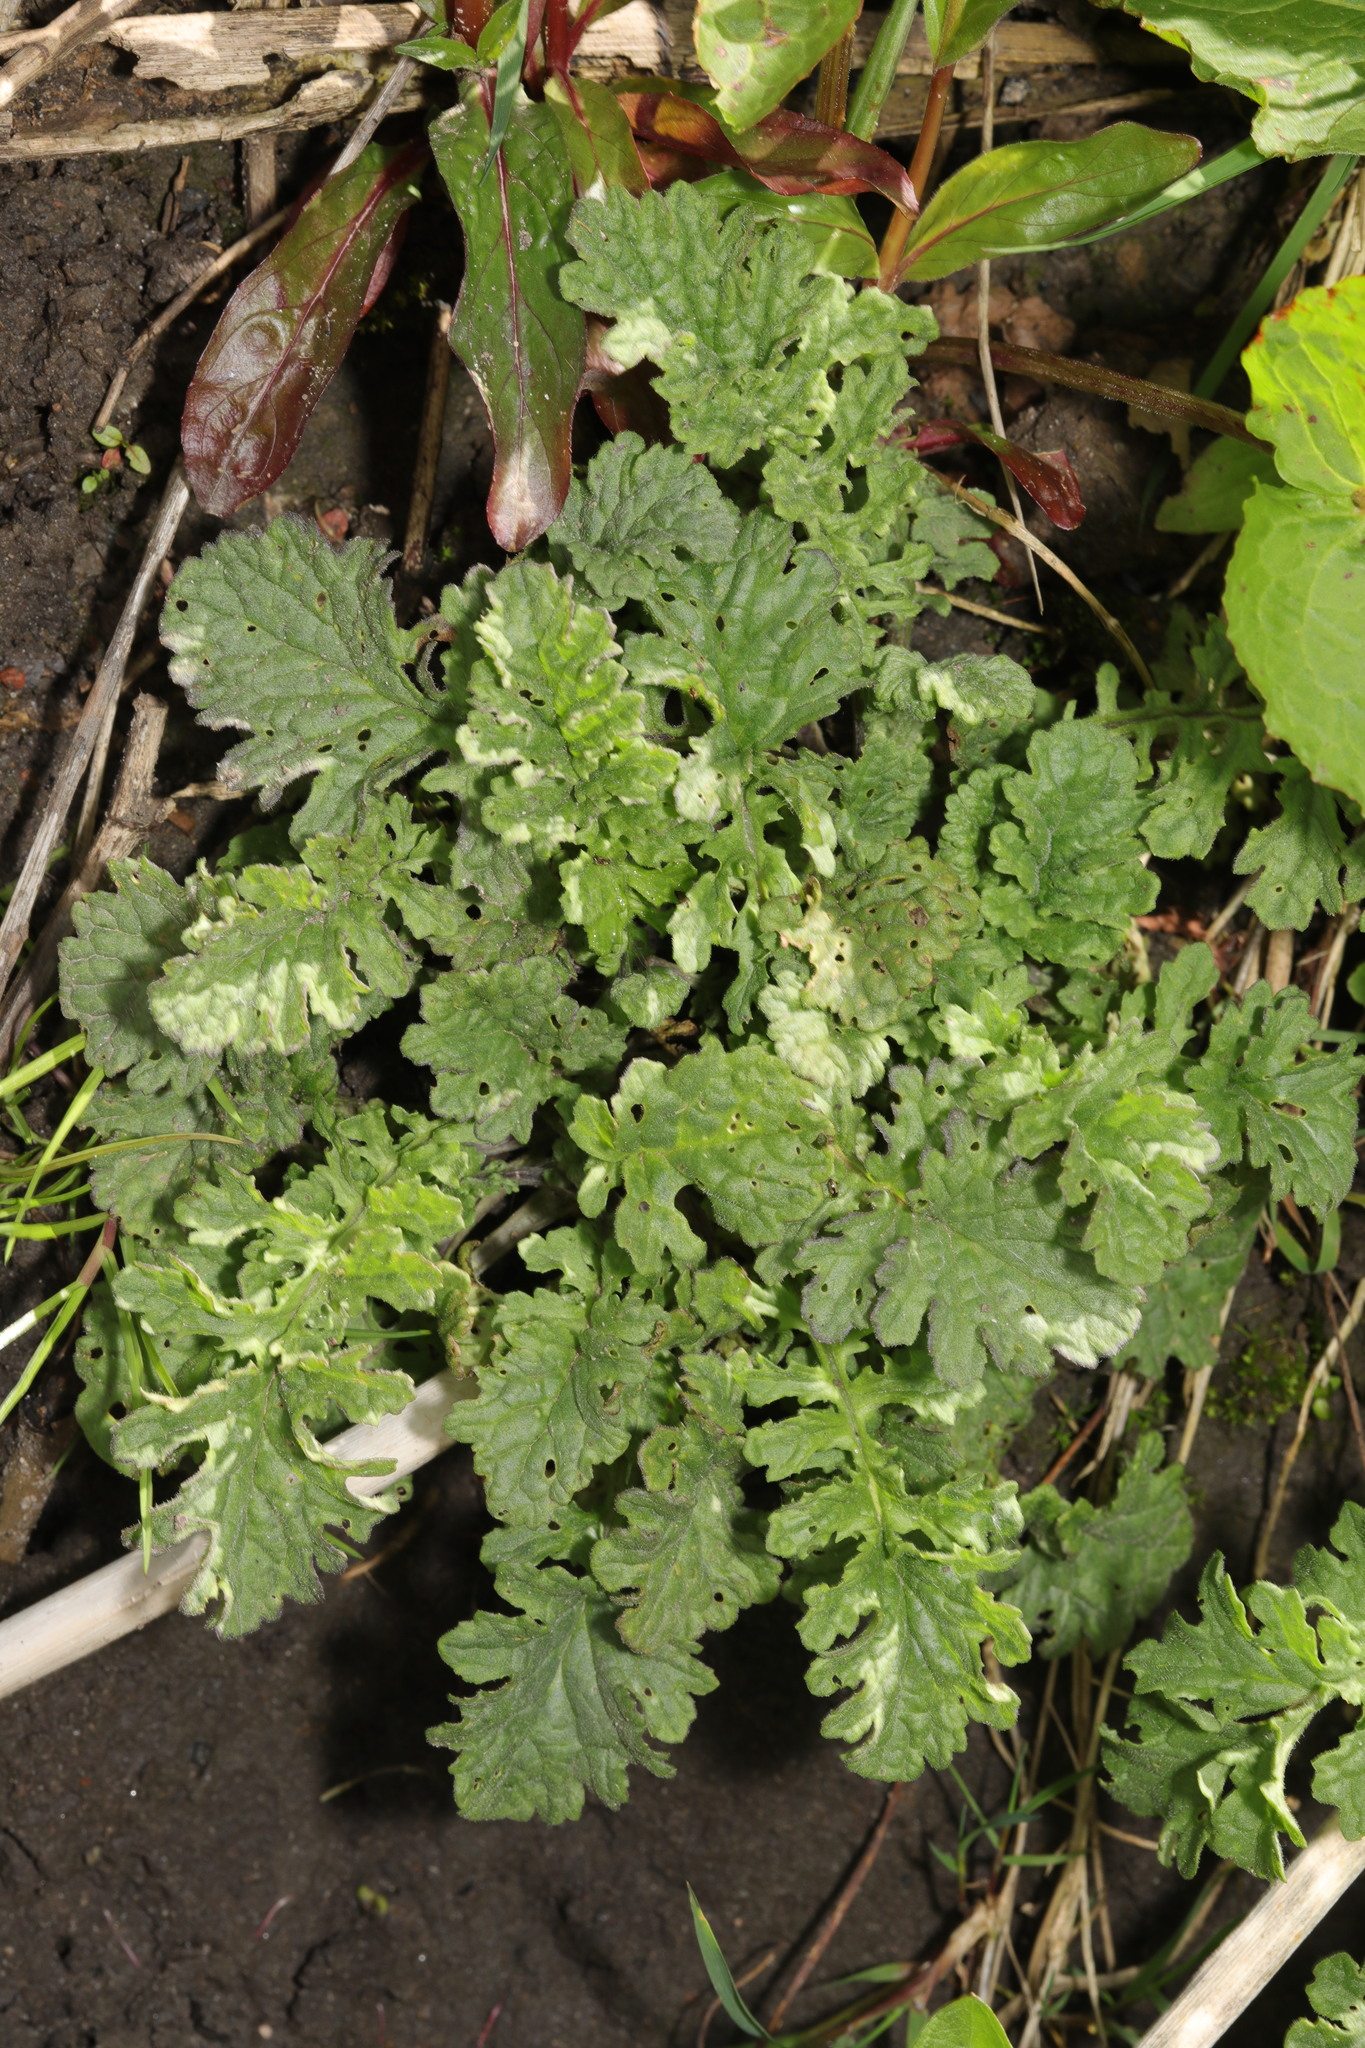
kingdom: Plantae
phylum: Tracheophyta
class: Magnoliopsida
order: Asterales
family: Asteraceae
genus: Jacobaea
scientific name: Jacobaea vulgaris
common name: Stinking willie
